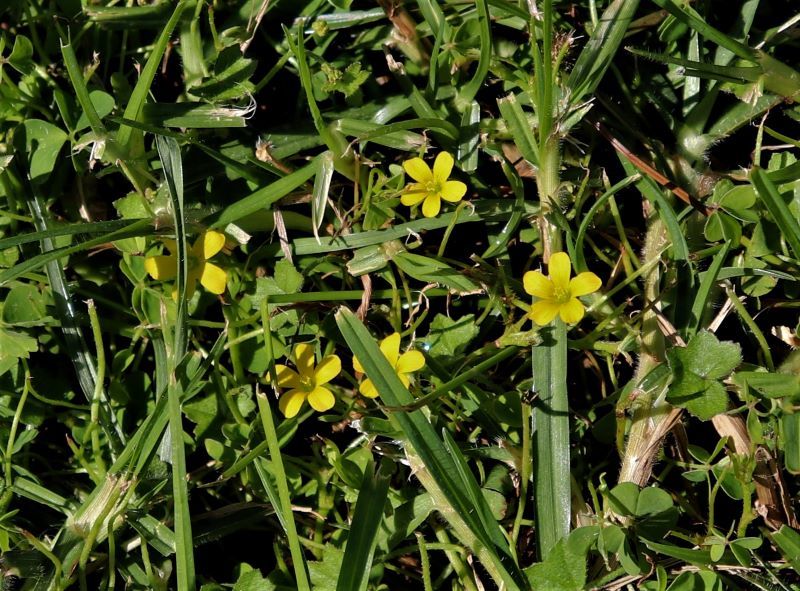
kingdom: Plantae
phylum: Tracheophyta
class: Magnoliopsida
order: Oxalidales
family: Oxalidaceae
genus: Oxalis
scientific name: Oxalis corniculata
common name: Procumbent yellow-sorrel
